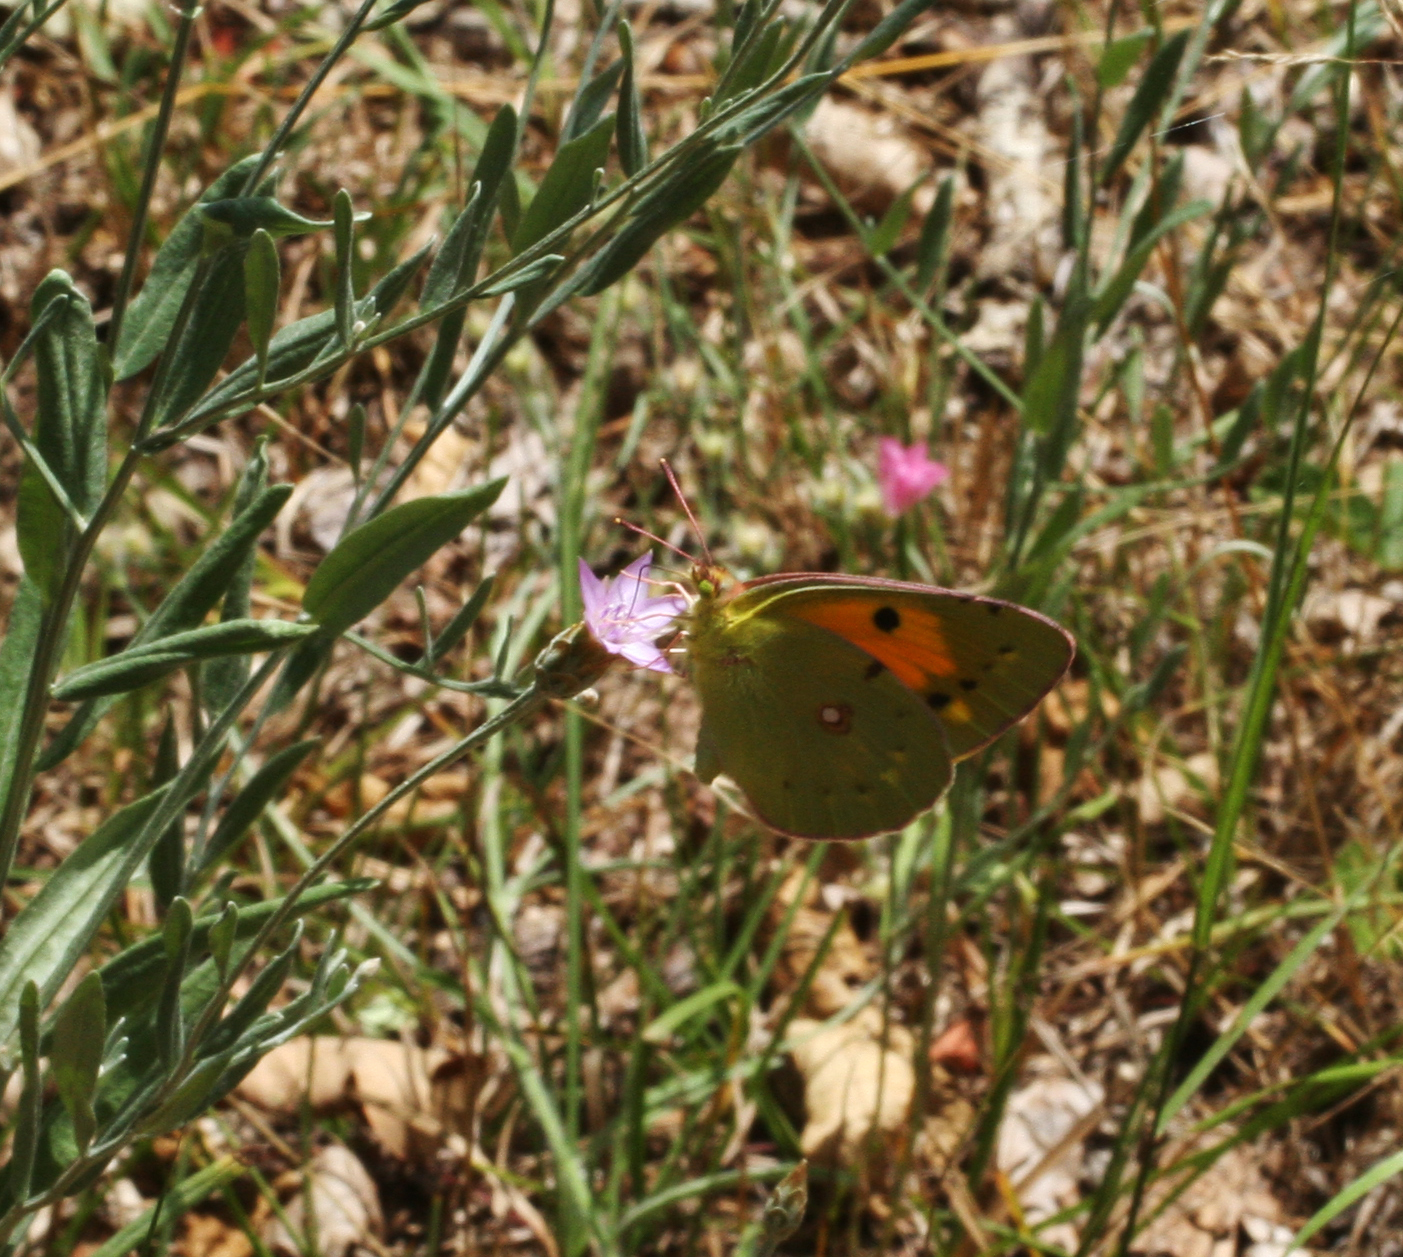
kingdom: Animalia
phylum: Arthropoda
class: Insecta
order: Lepidoptera
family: Pieridae
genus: Colias
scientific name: Colias croceus
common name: Clouded yellow
